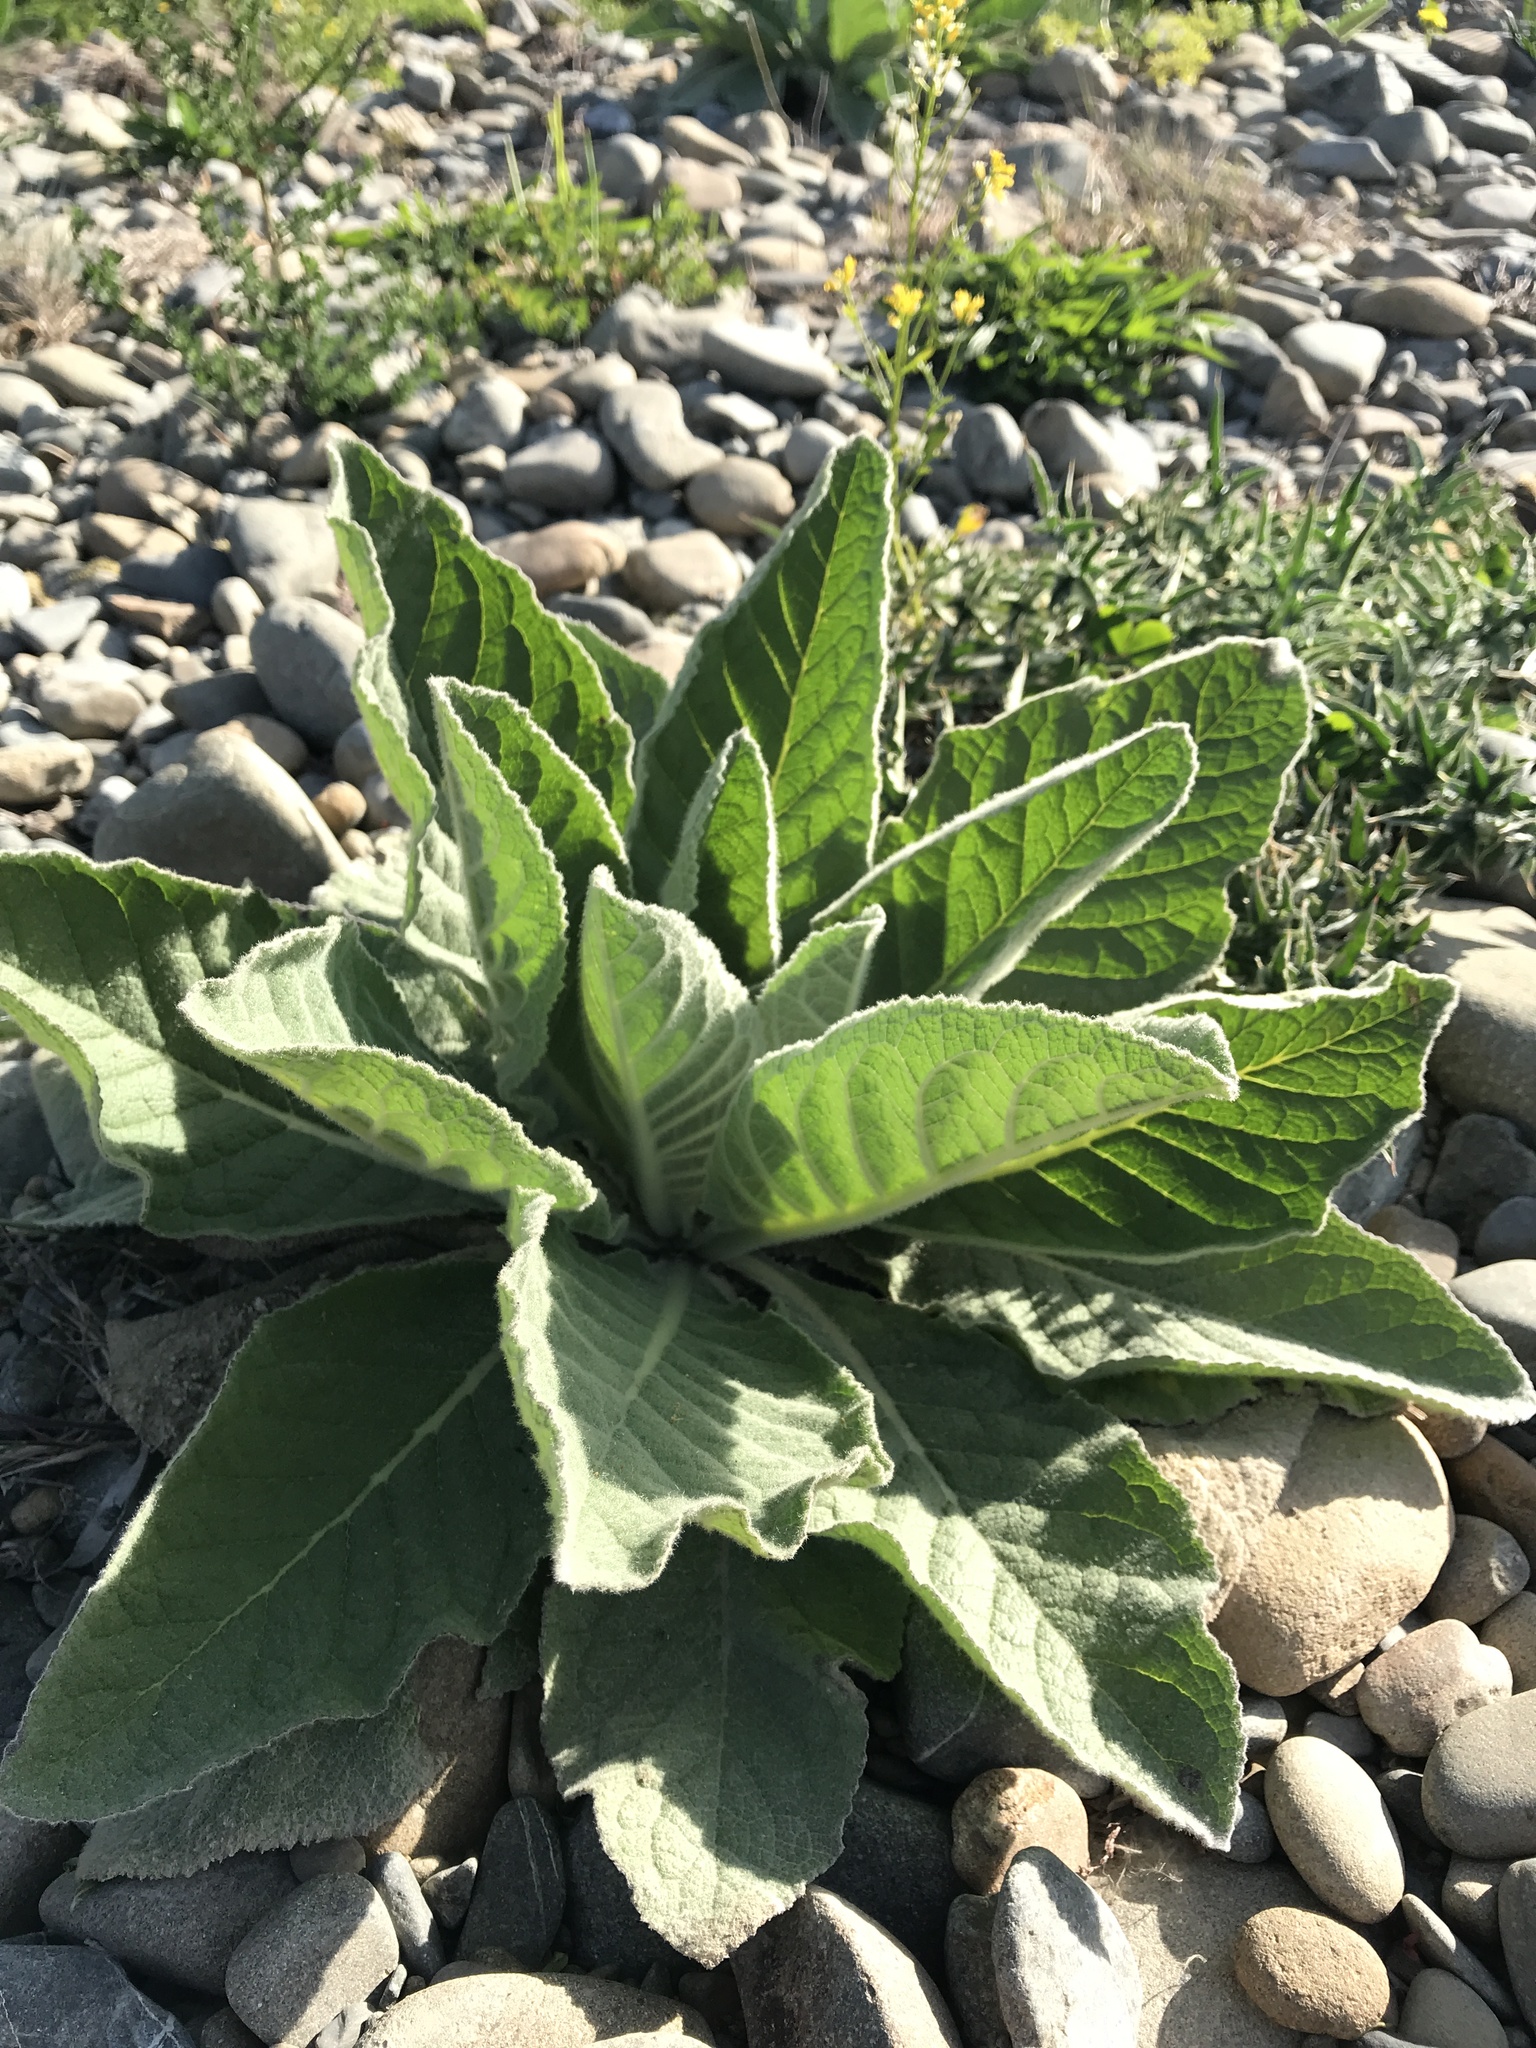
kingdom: Plantae
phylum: Tracheophyta
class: Magnoliopsida
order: Lamiales
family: Scrophulariaceae
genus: Verbascum
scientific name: Verbascum thapsus
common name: Common mullein
